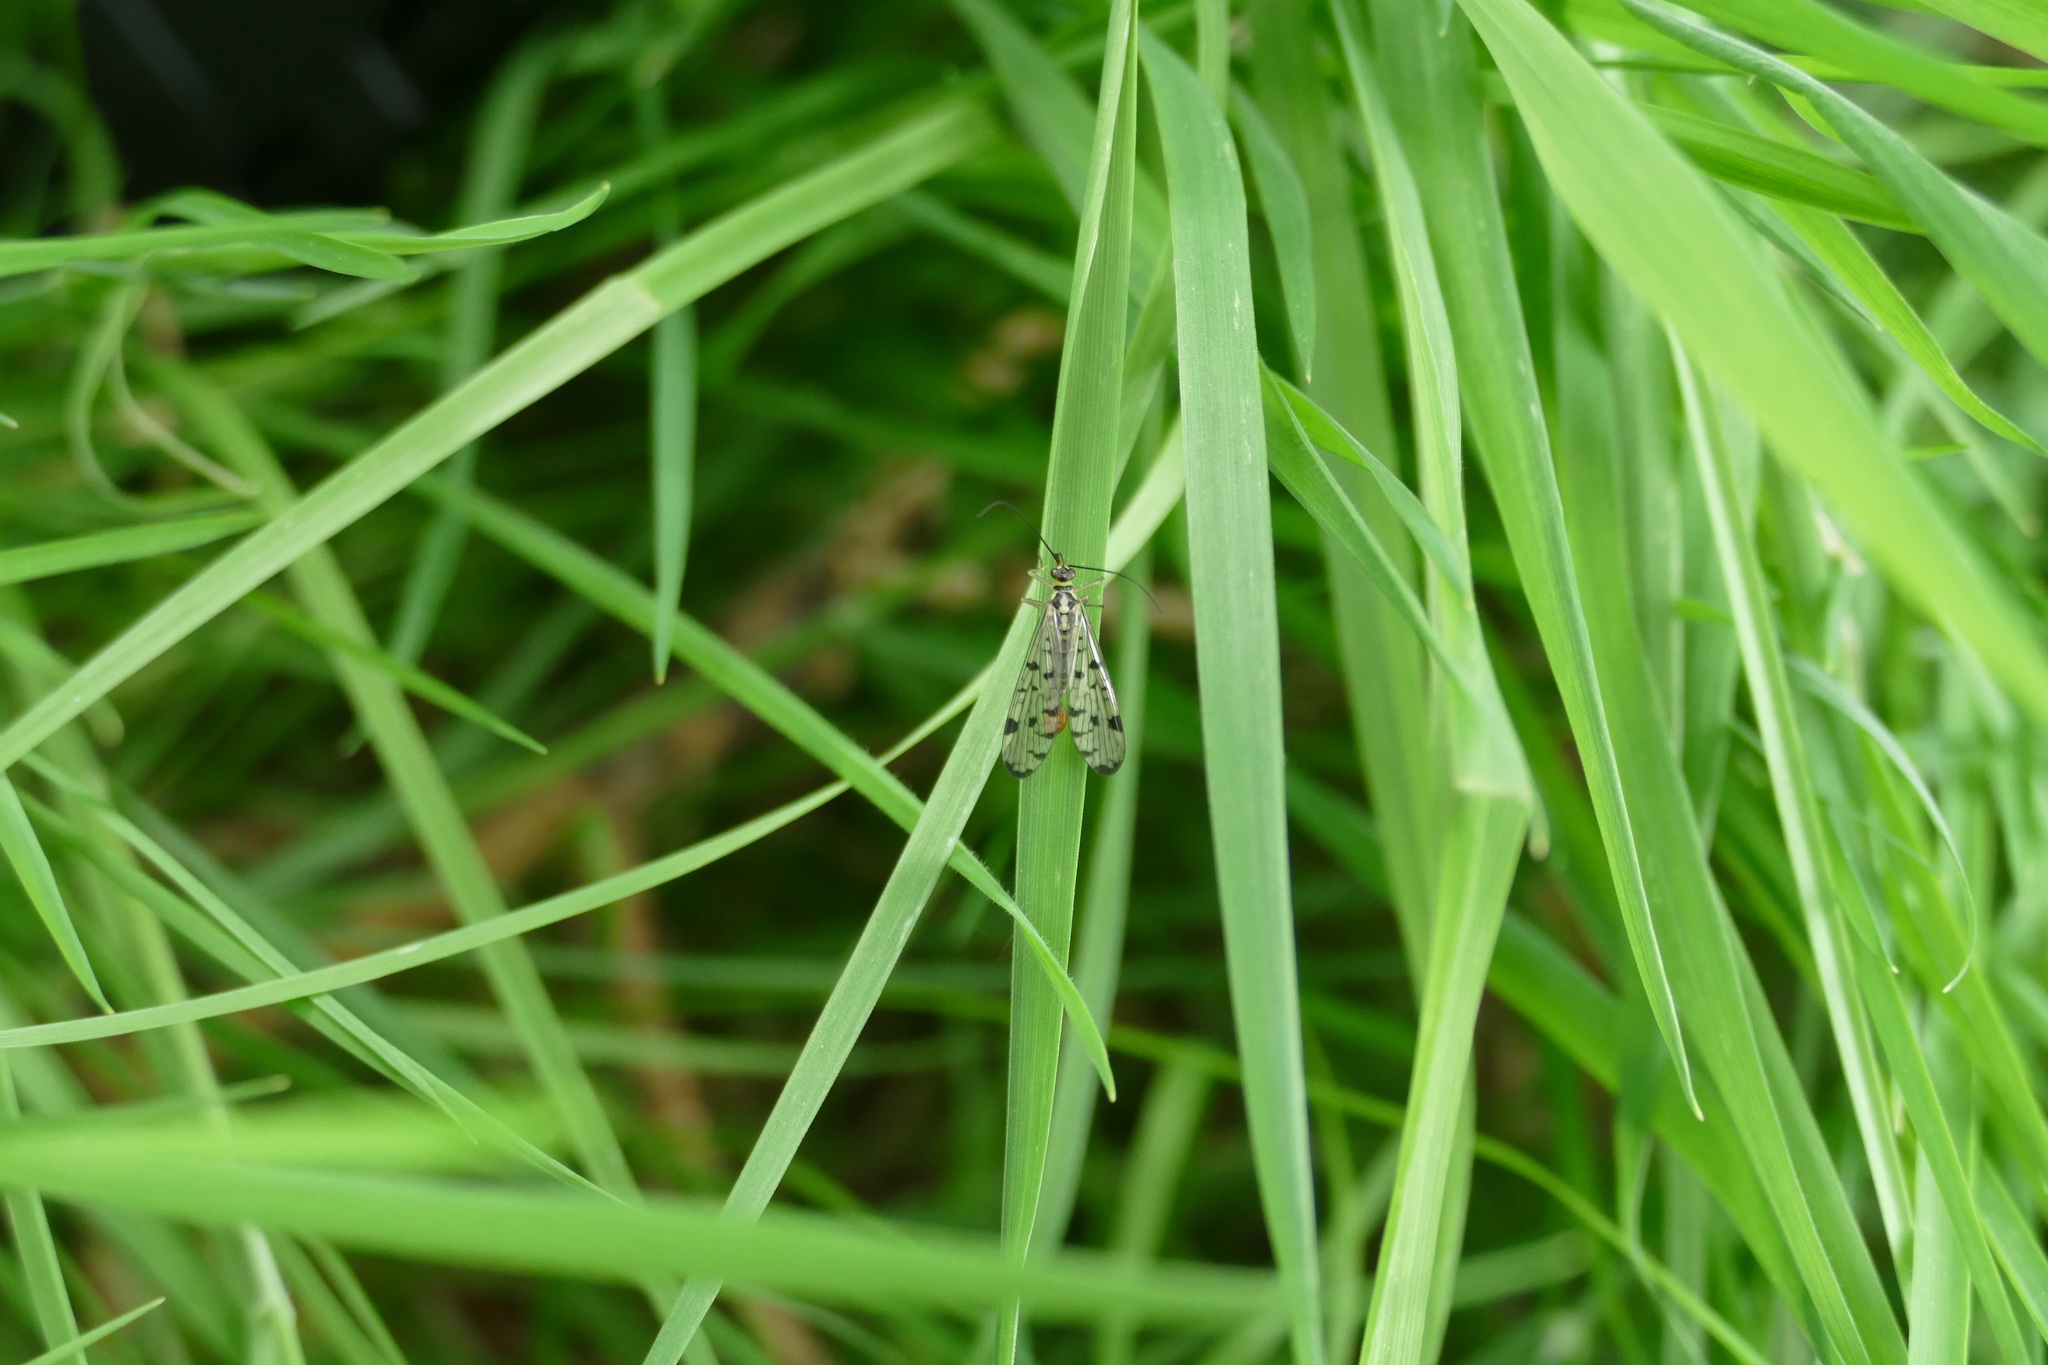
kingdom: Animalia
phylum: Arthropoda
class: Insecta
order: Mecoptera
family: Panorpidae
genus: Panorpa
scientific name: Panorpa germanica
